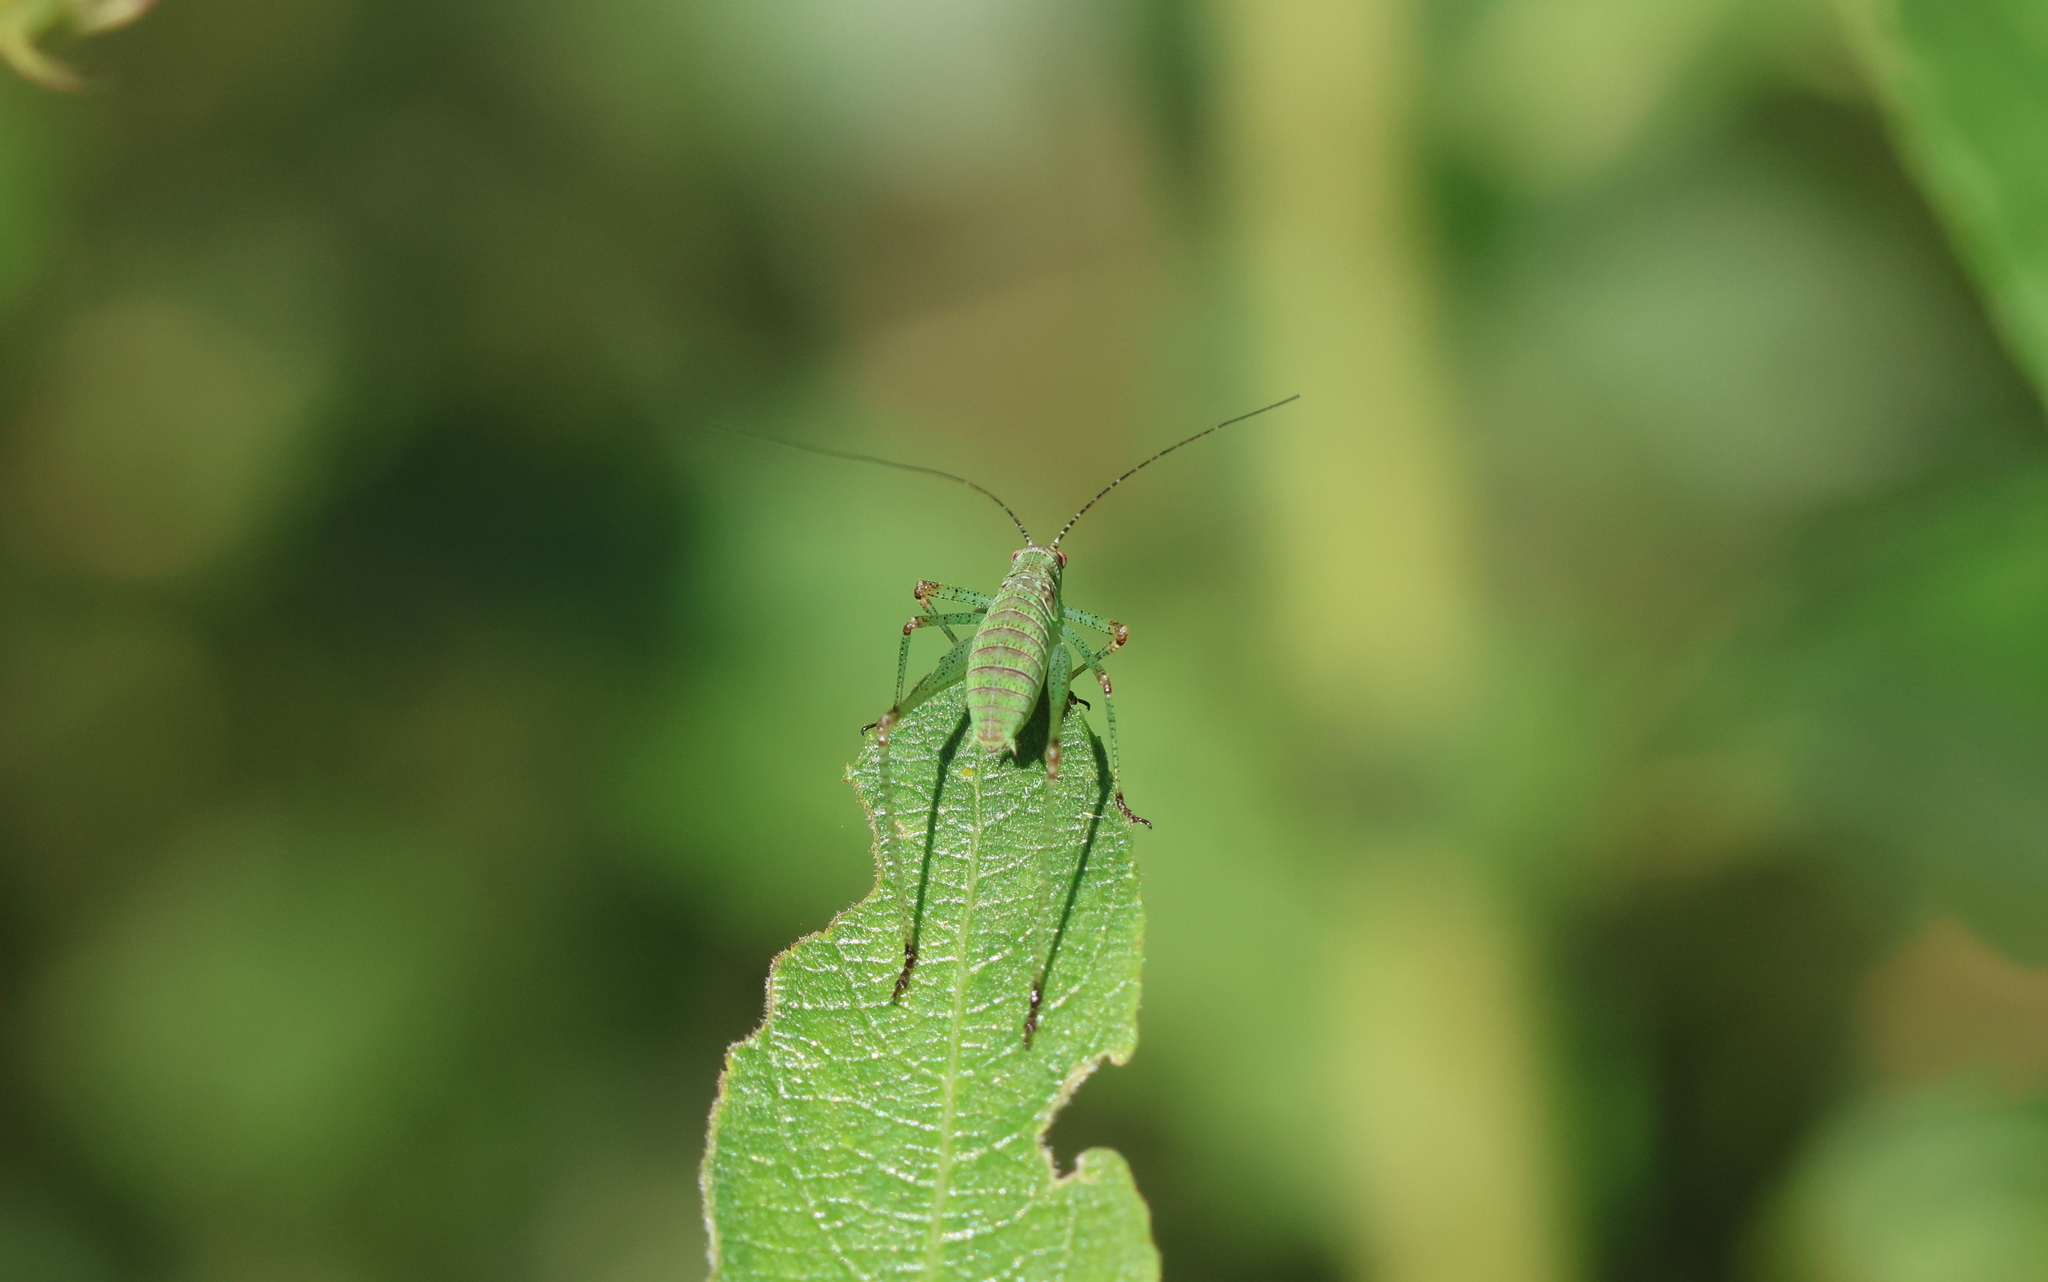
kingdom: Animalia
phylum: Arthropoda
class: Insecta
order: Orthoptera
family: Tettigoniidae
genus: Phaneroptera
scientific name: Phaneroptera nana
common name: Southern sickle bush-cricket
